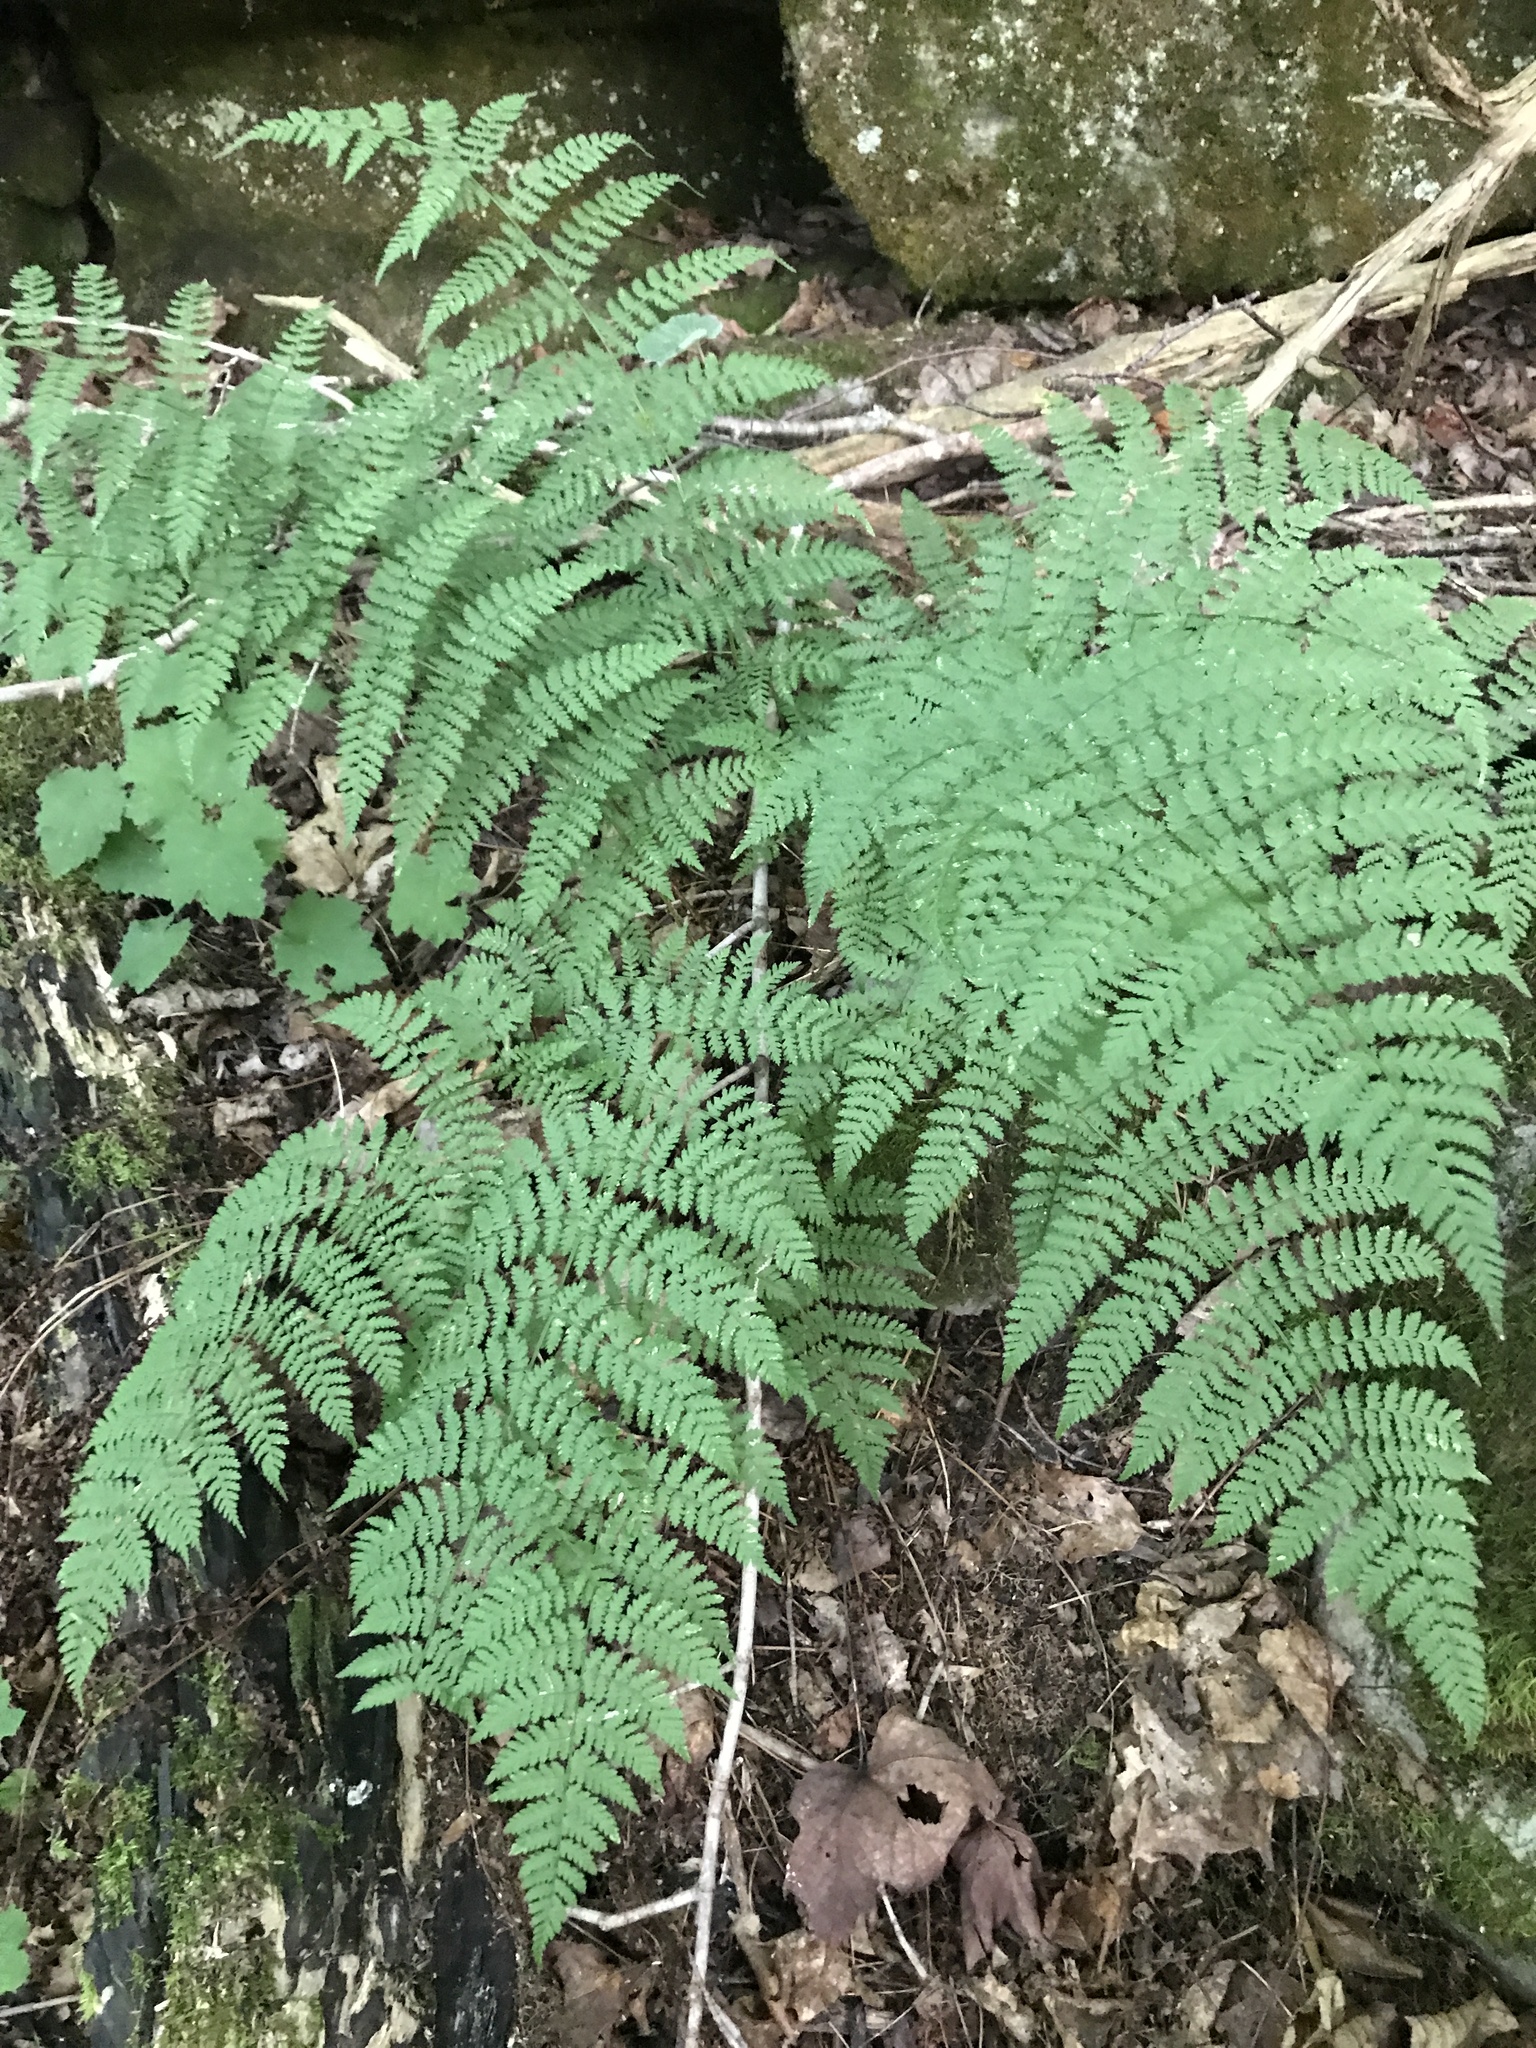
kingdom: Plantae
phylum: Tracheophyta
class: Polypodiopsida
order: Polypodiales
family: Dryopteridaceae
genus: Dryopteris
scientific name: Dryopteris intermedia
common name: Evergreen wood fern
